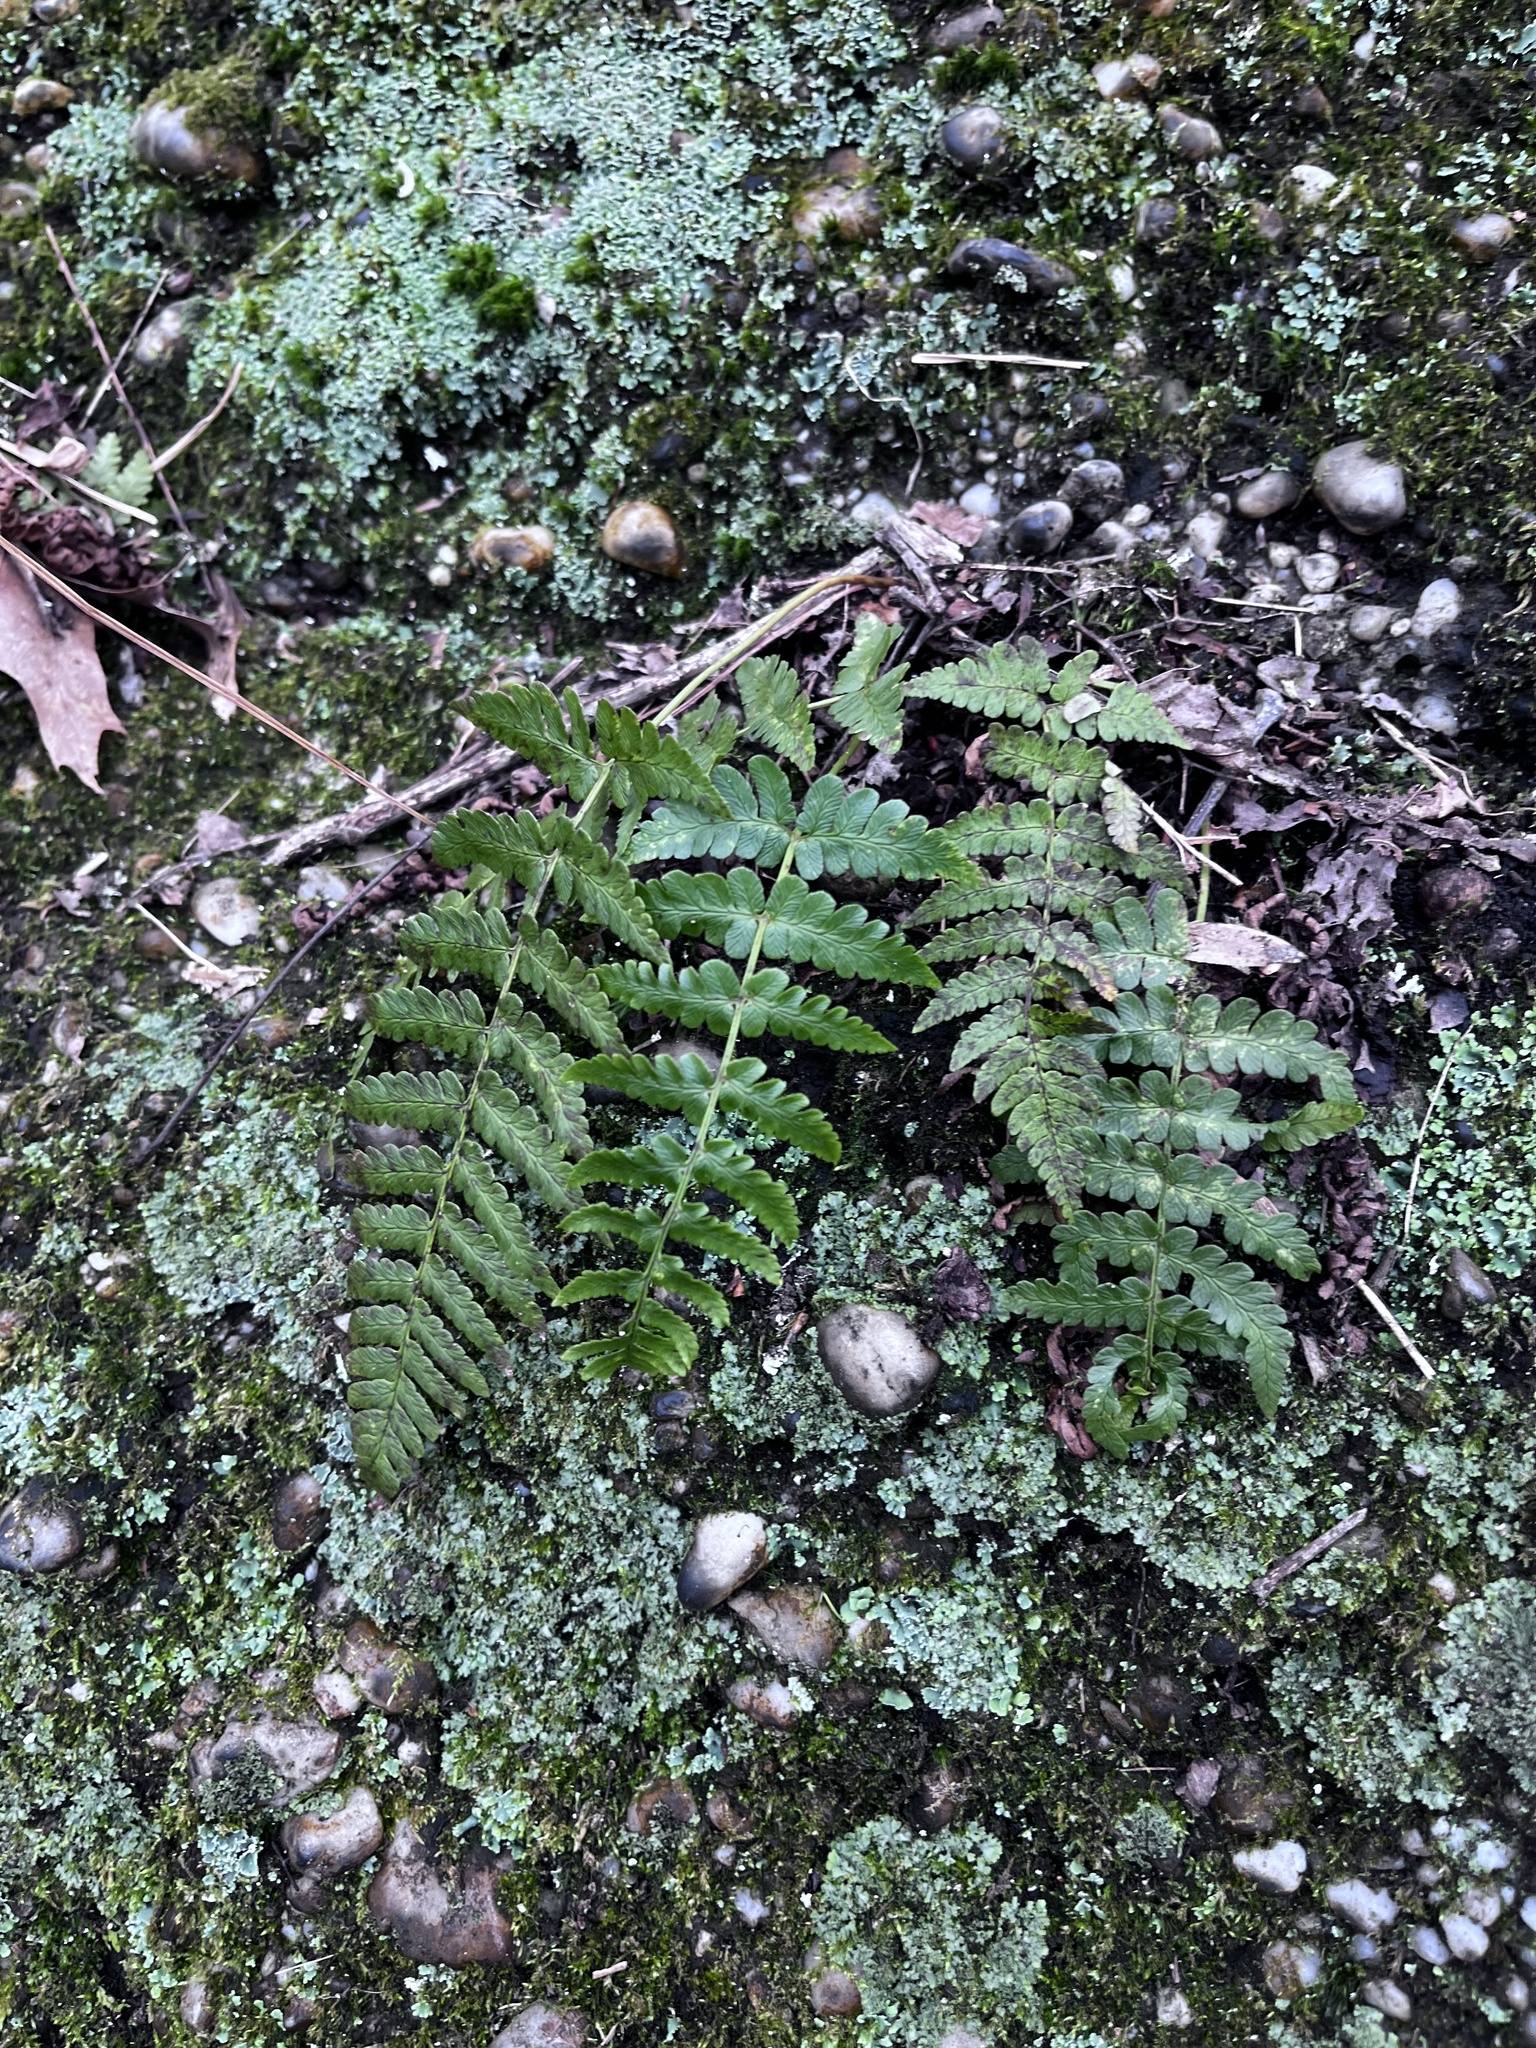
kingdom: Plantae
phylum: Tracheophyta
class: Polypodiopsida
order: Polypodiales
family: Dryopteridaceae
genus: Dryopteris
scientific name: Dryopteris marginalis
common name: Marginal wood fern
